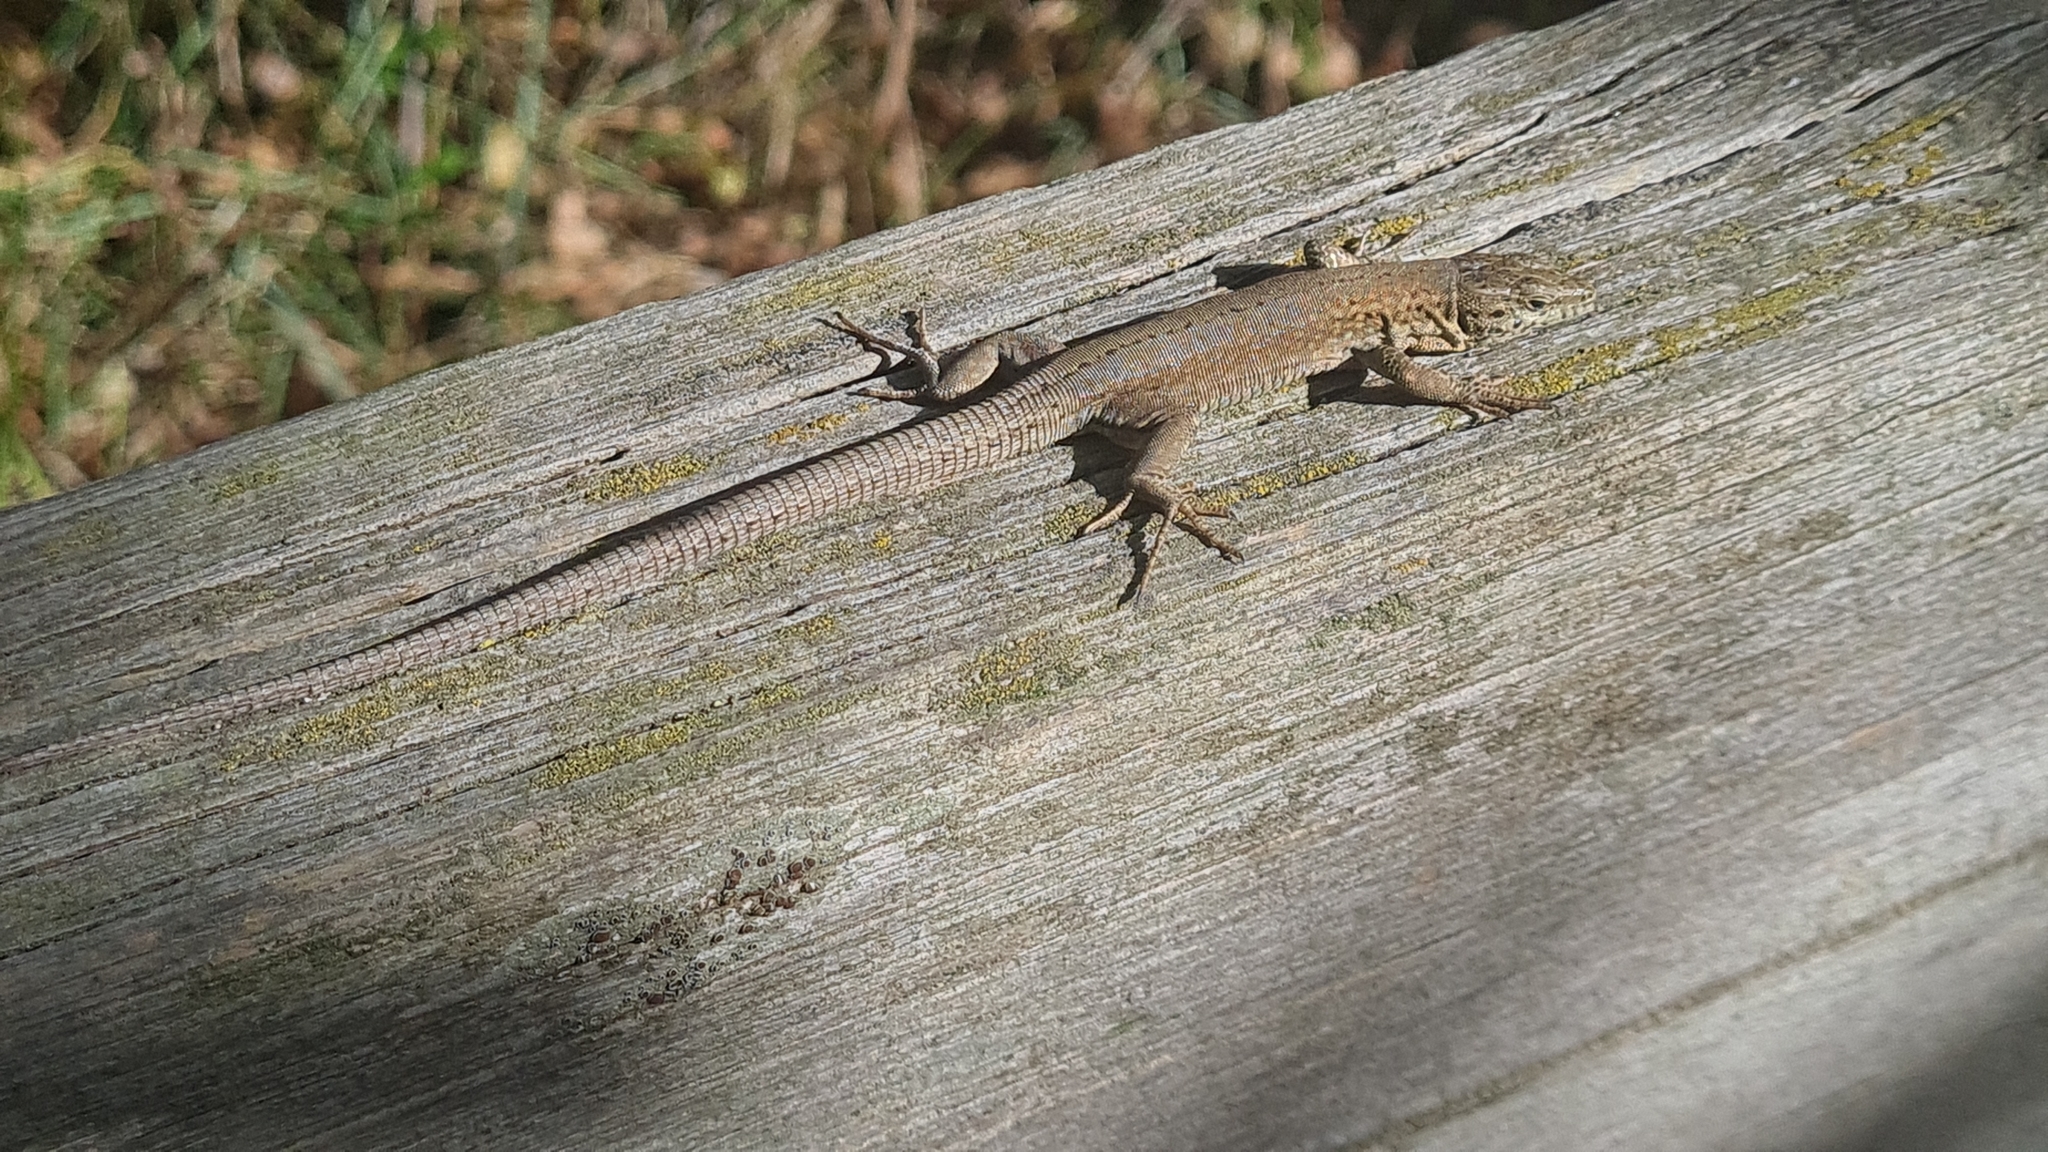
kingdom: Animalia
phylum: Chordata
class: Squamata
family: Lacertidae
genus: Podarcis
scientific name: Podarcis liolepis
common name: Catalonian wall lizard
